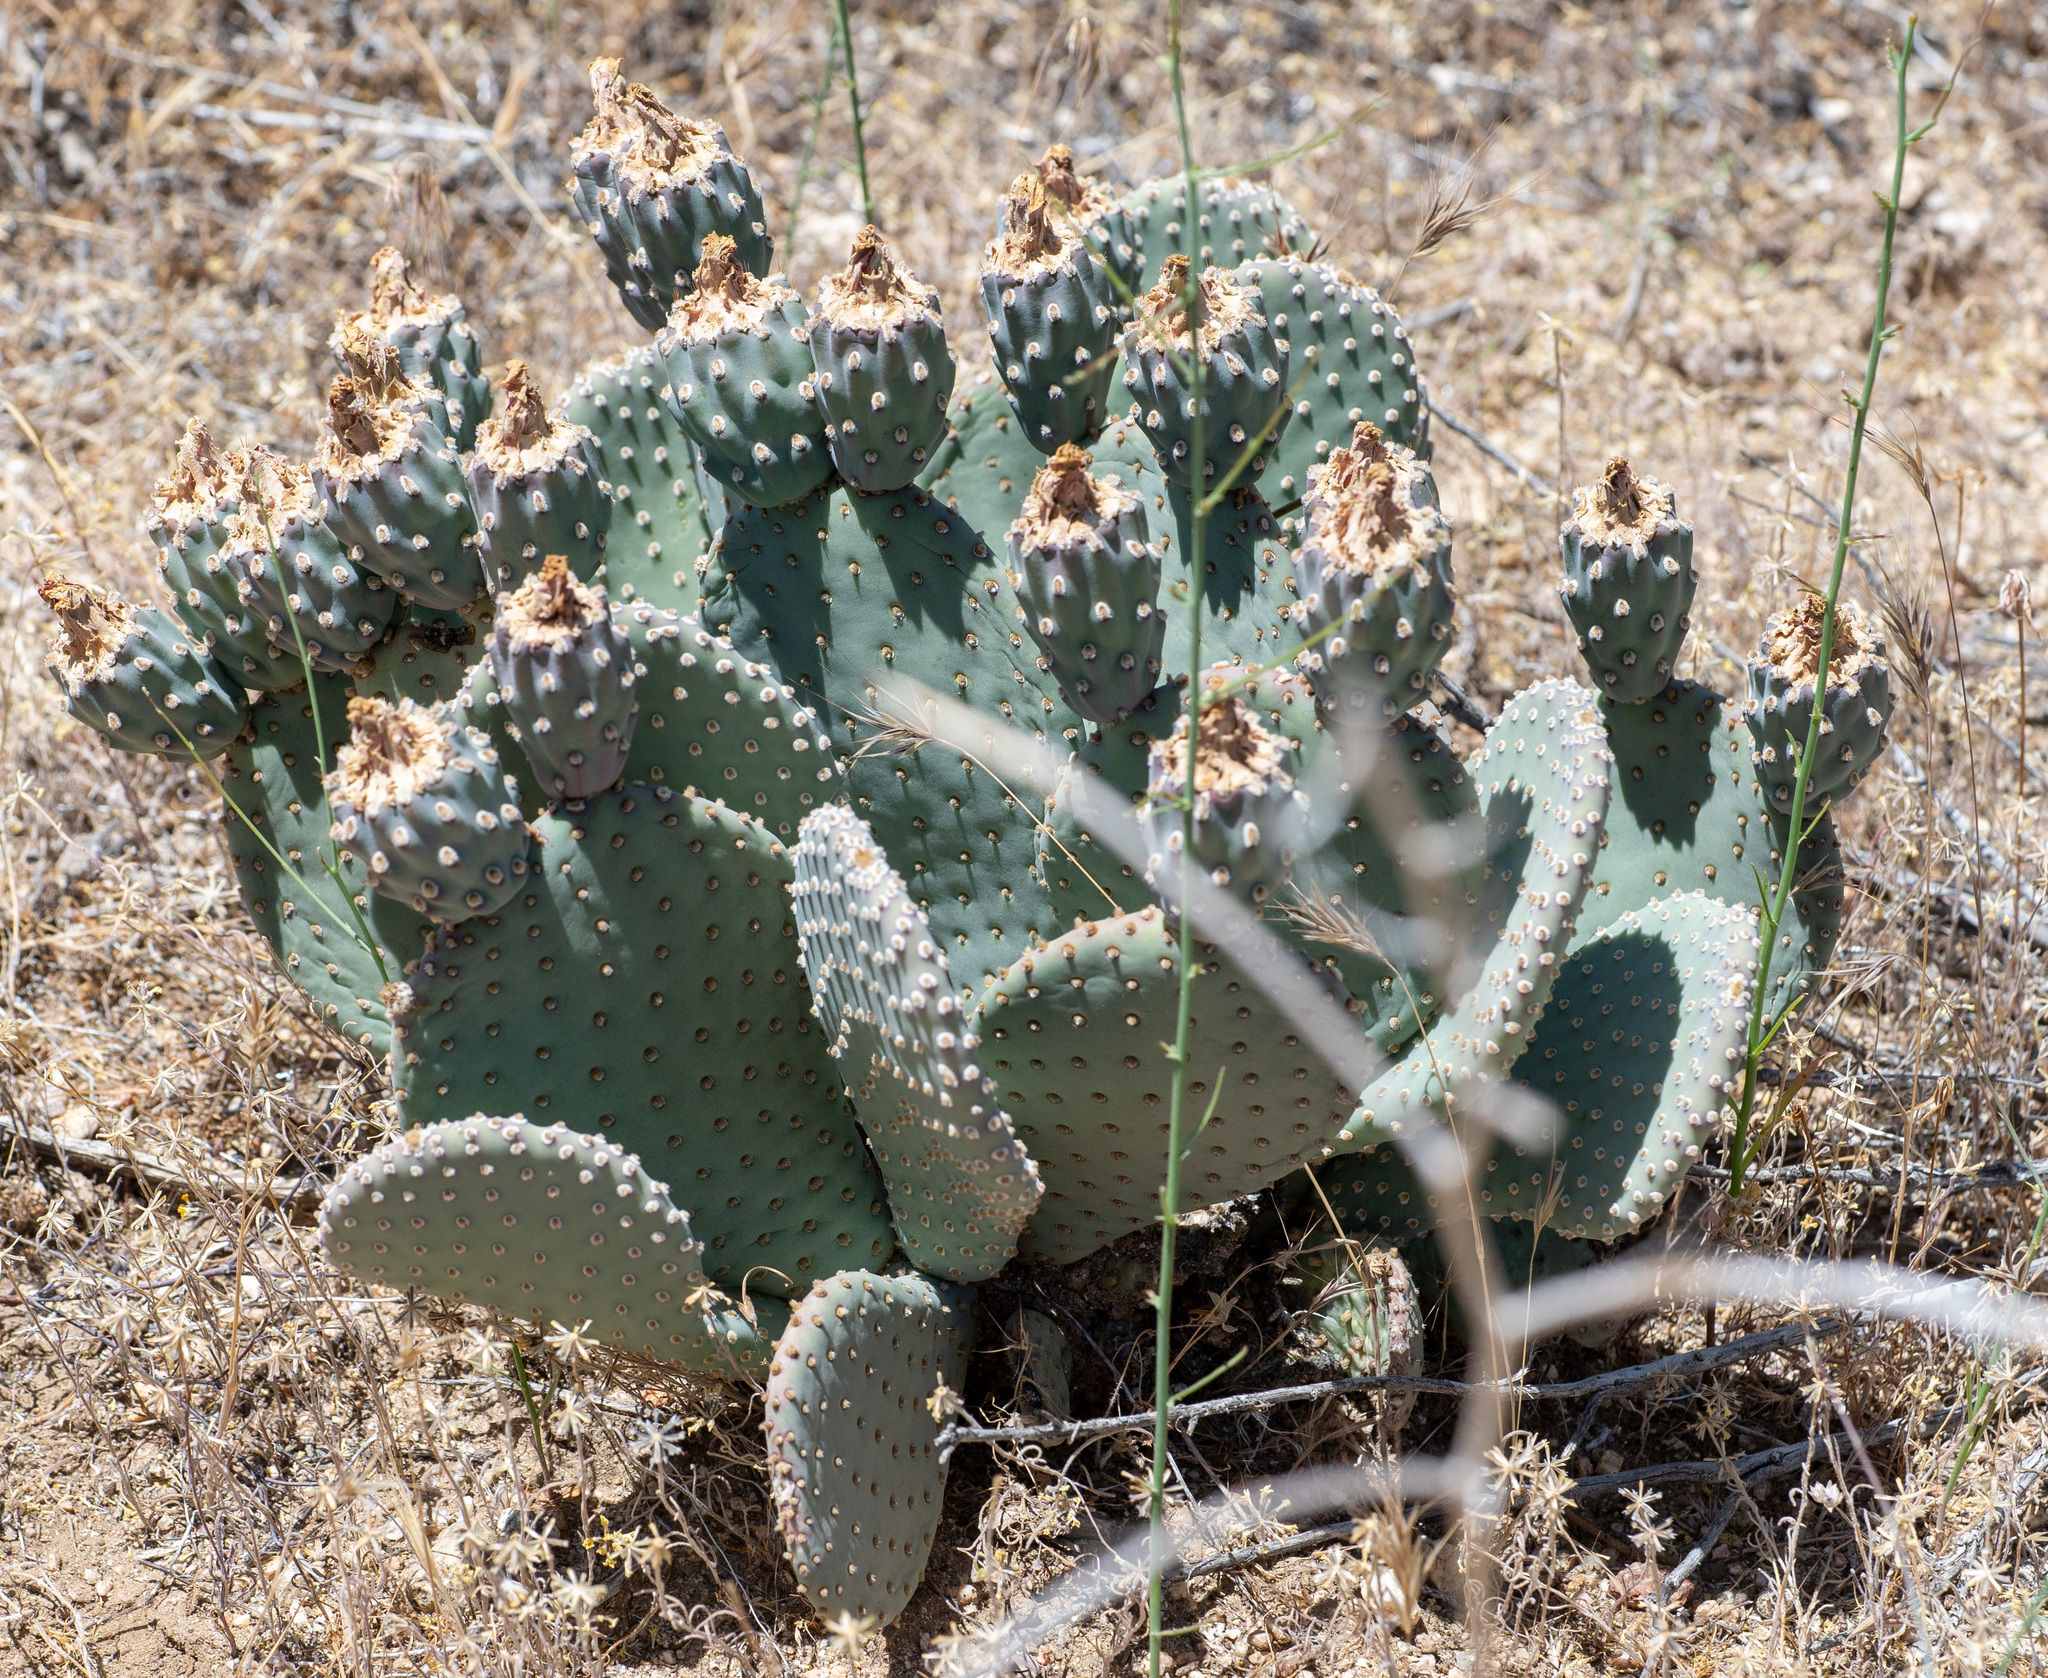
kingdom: Plantae
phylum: Tracheophyta
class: Magnoliopsida
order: Caryophyllales
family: Cactaceae
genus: Opuntia
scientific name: Opuntia basilaris
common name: Beavertail prickly-pear
